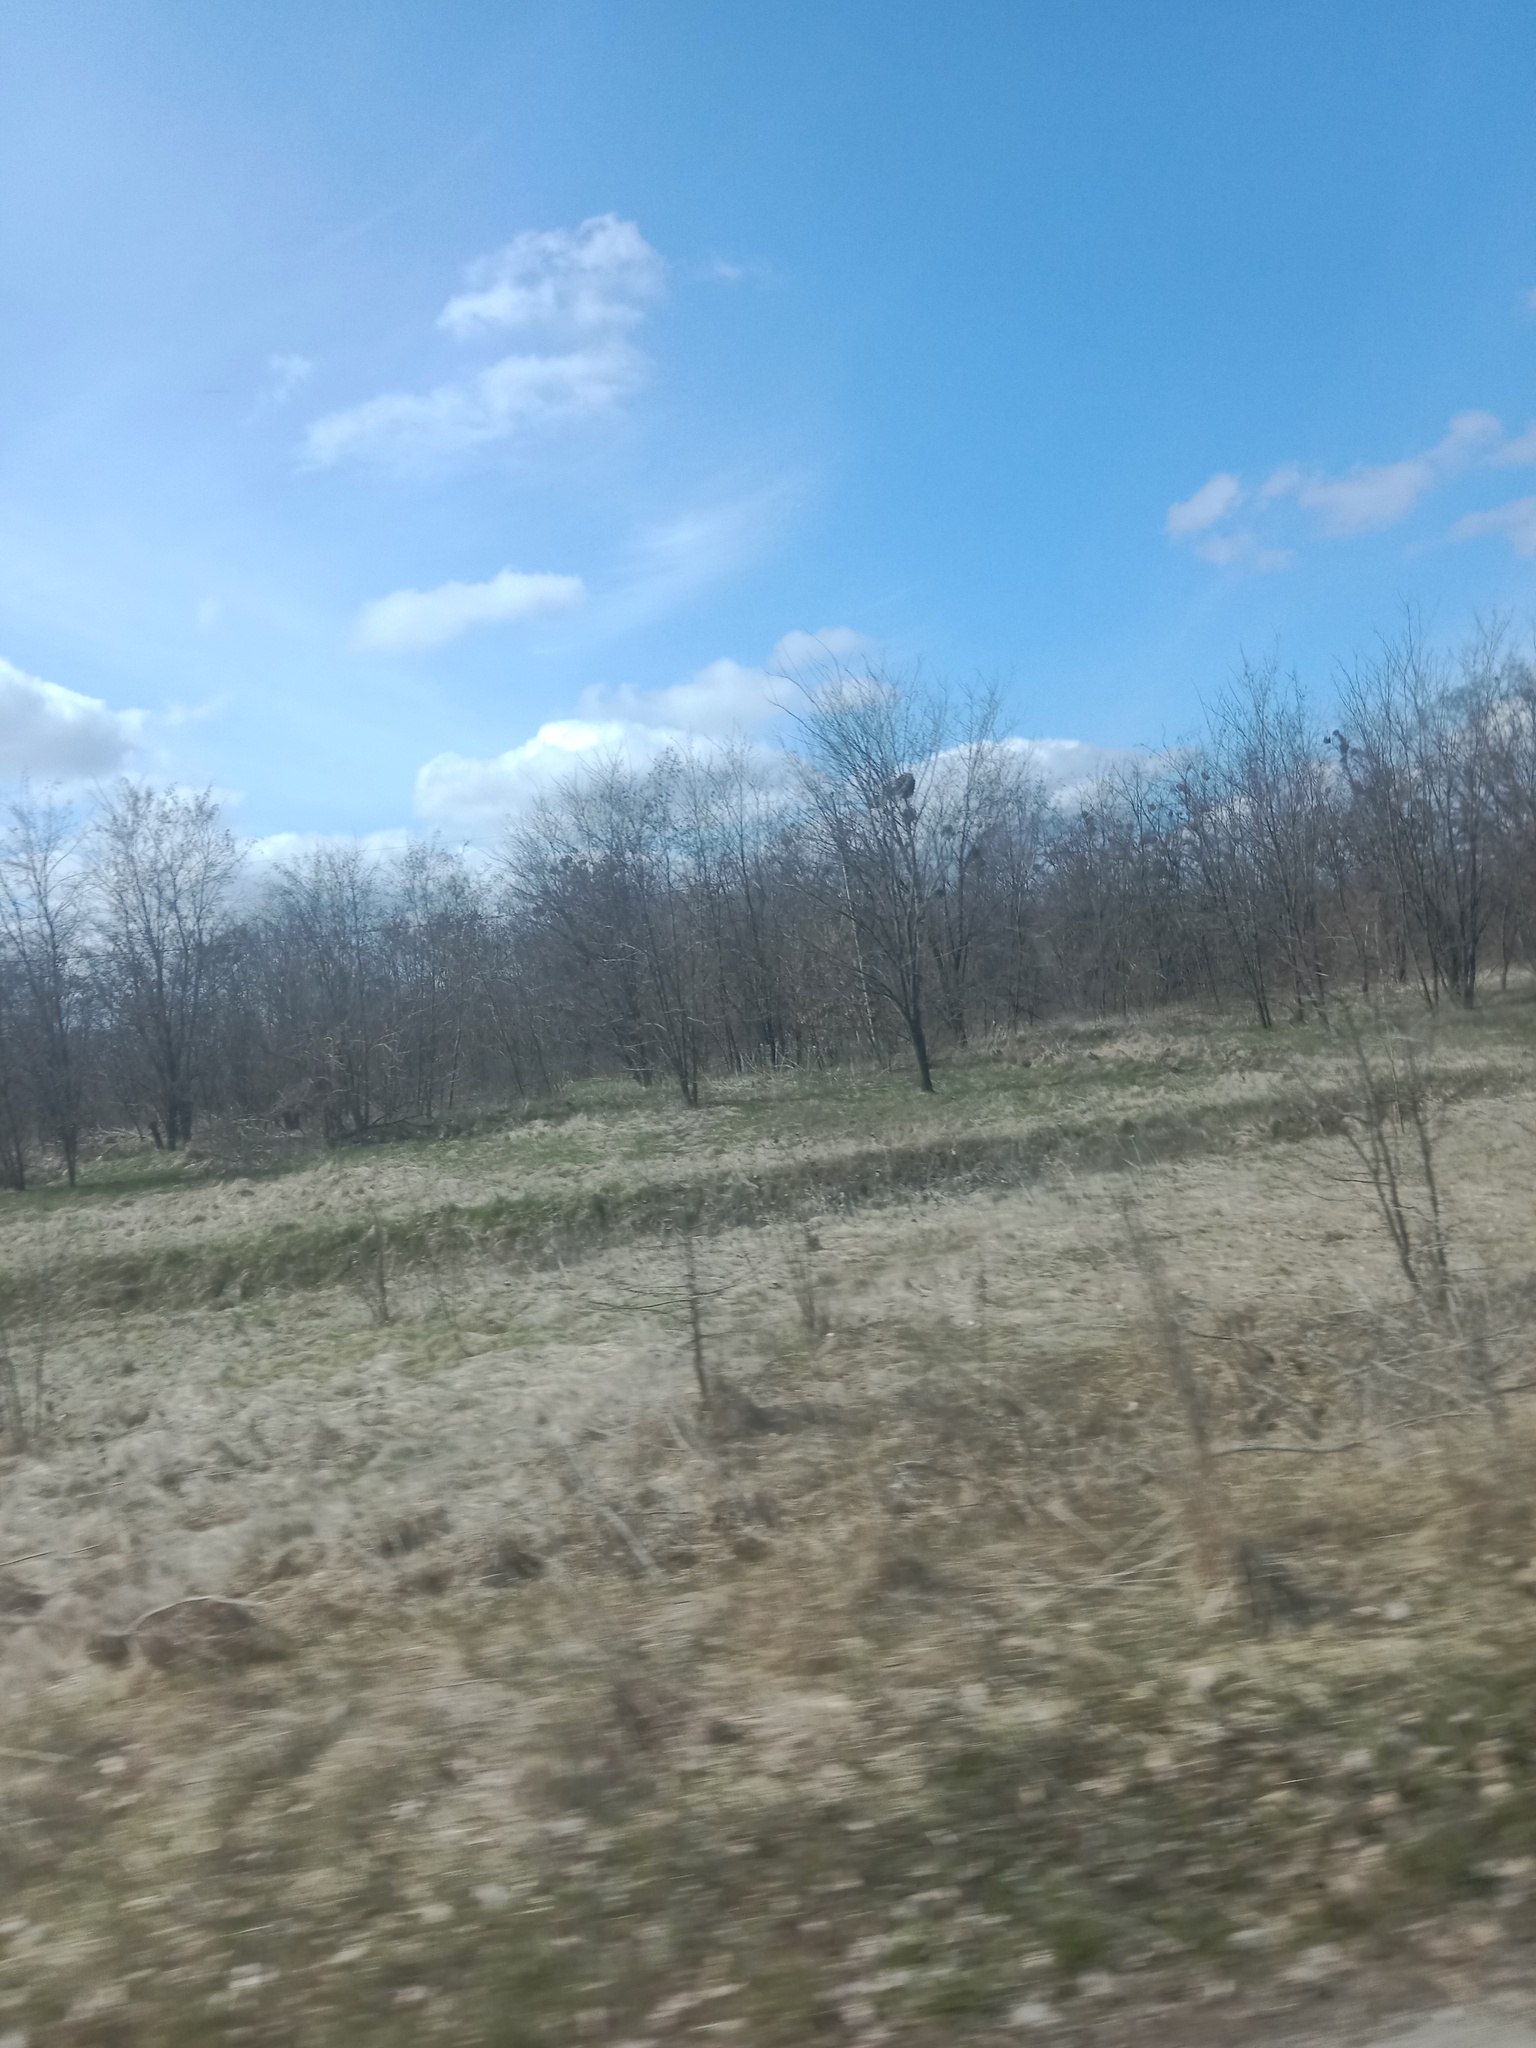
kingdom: Plantae
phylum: Tracheophyta
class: Magnoliopsida
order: Santalales
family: Viscaceae
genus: Viscum
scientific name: Viscum album
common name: Mistletoe
